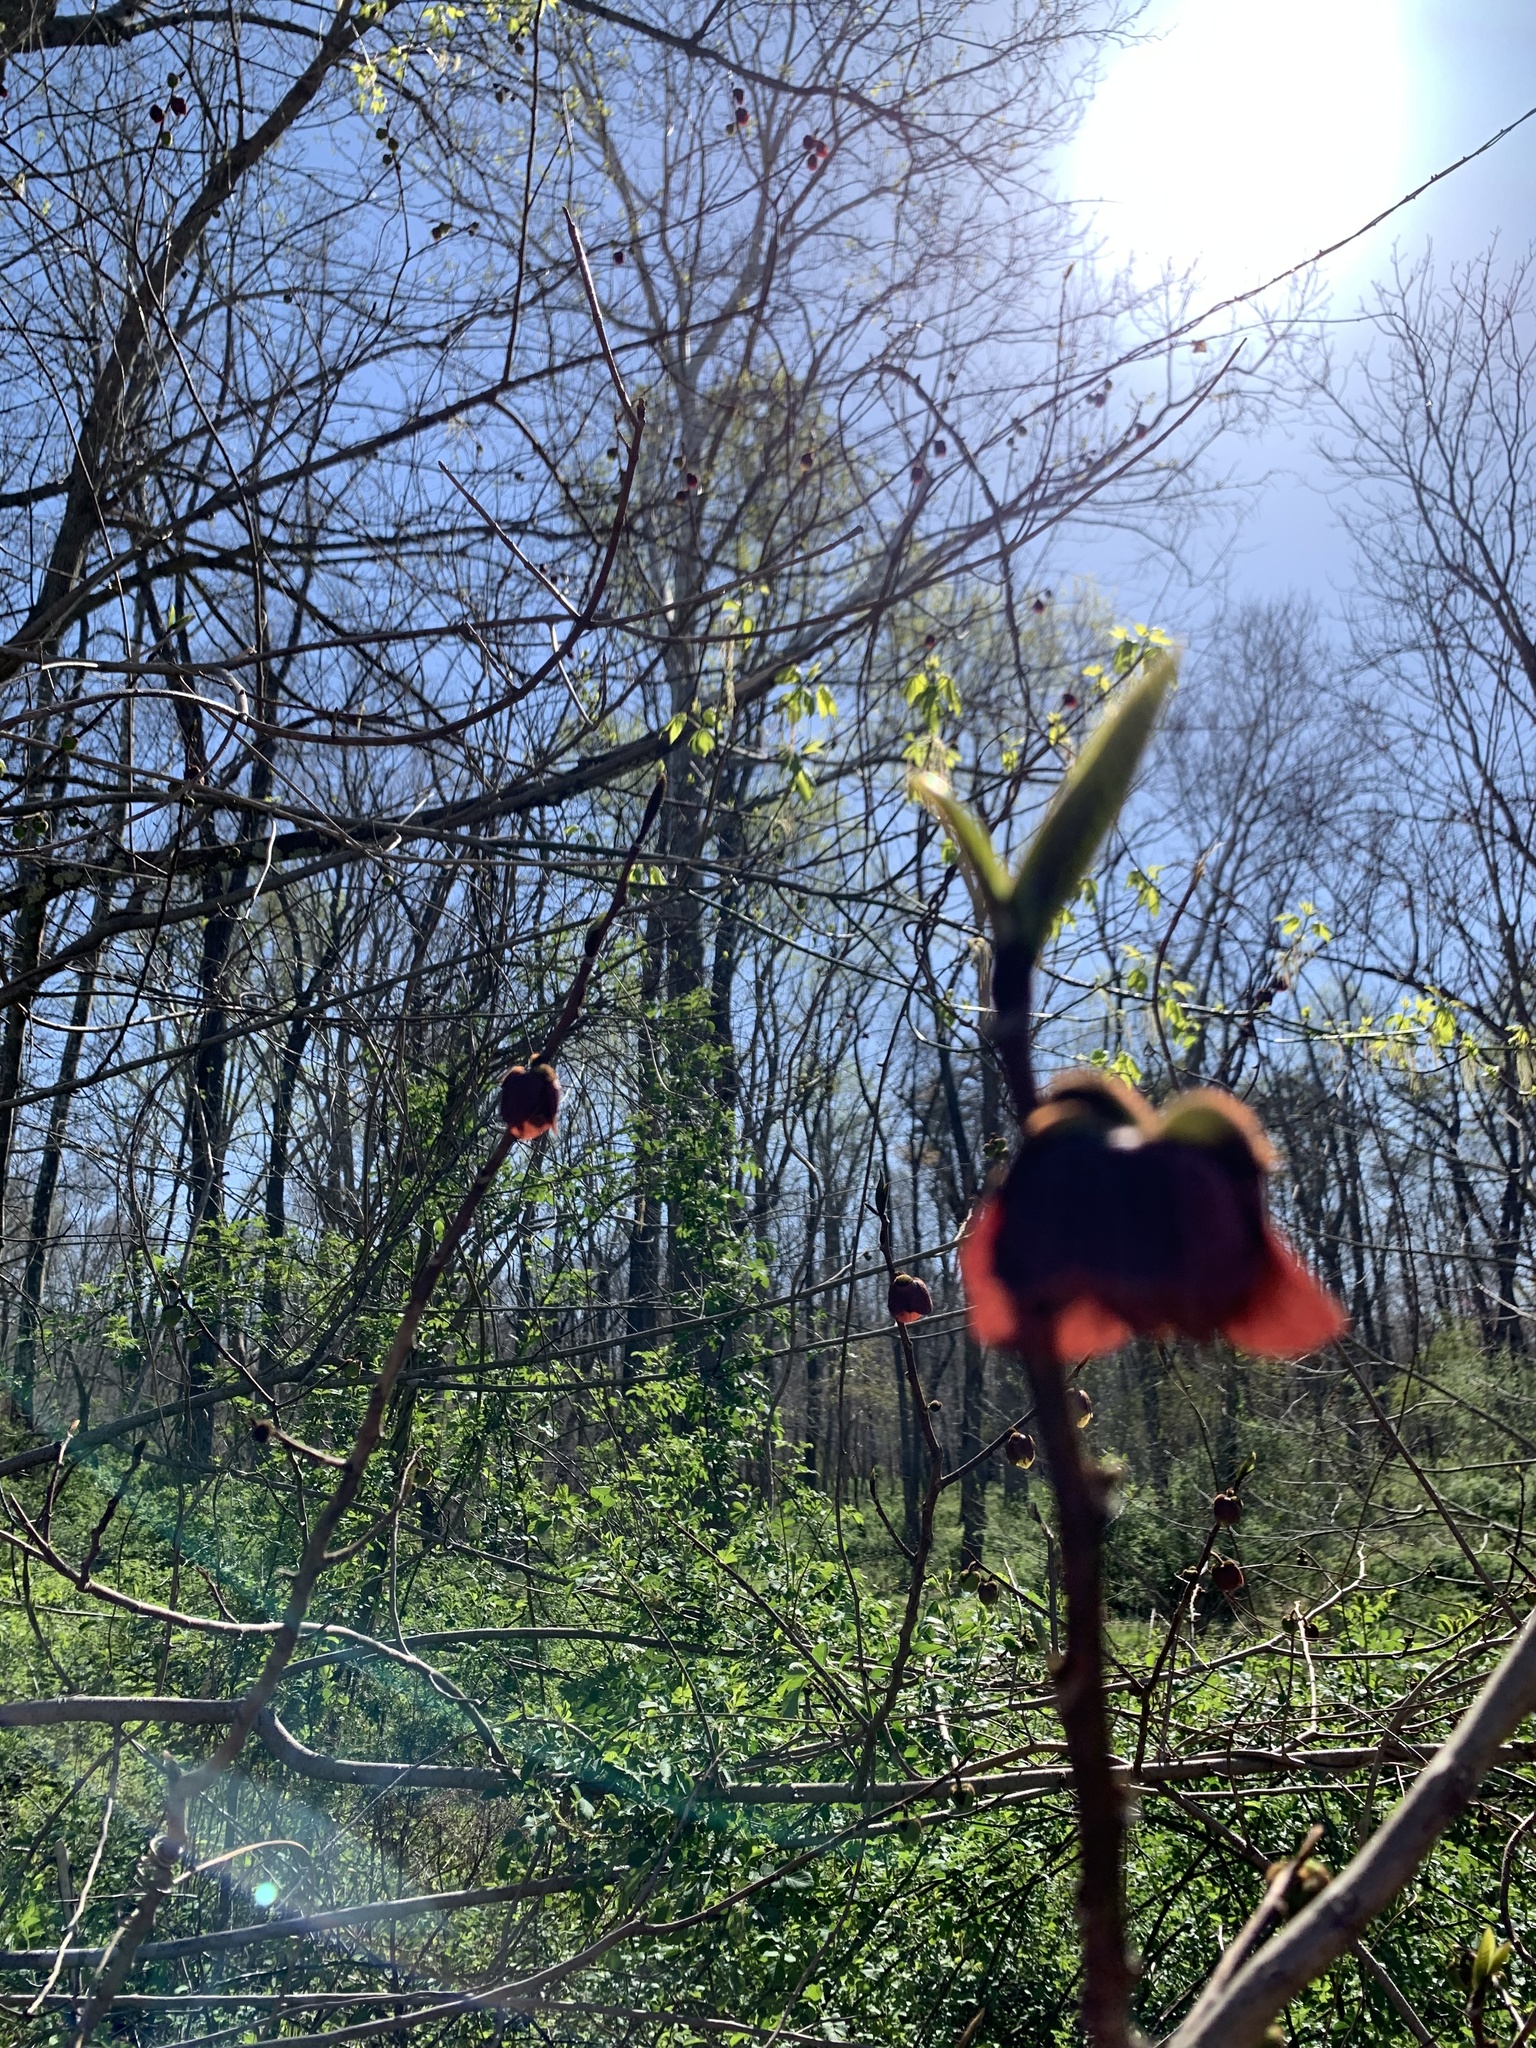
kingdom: Plantae
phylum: Tracheophyta
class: Magnoliopsida
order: Magnoliales
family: Annonaceae
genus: Asimina
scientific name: Asimina triloba
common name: Dog-banana
